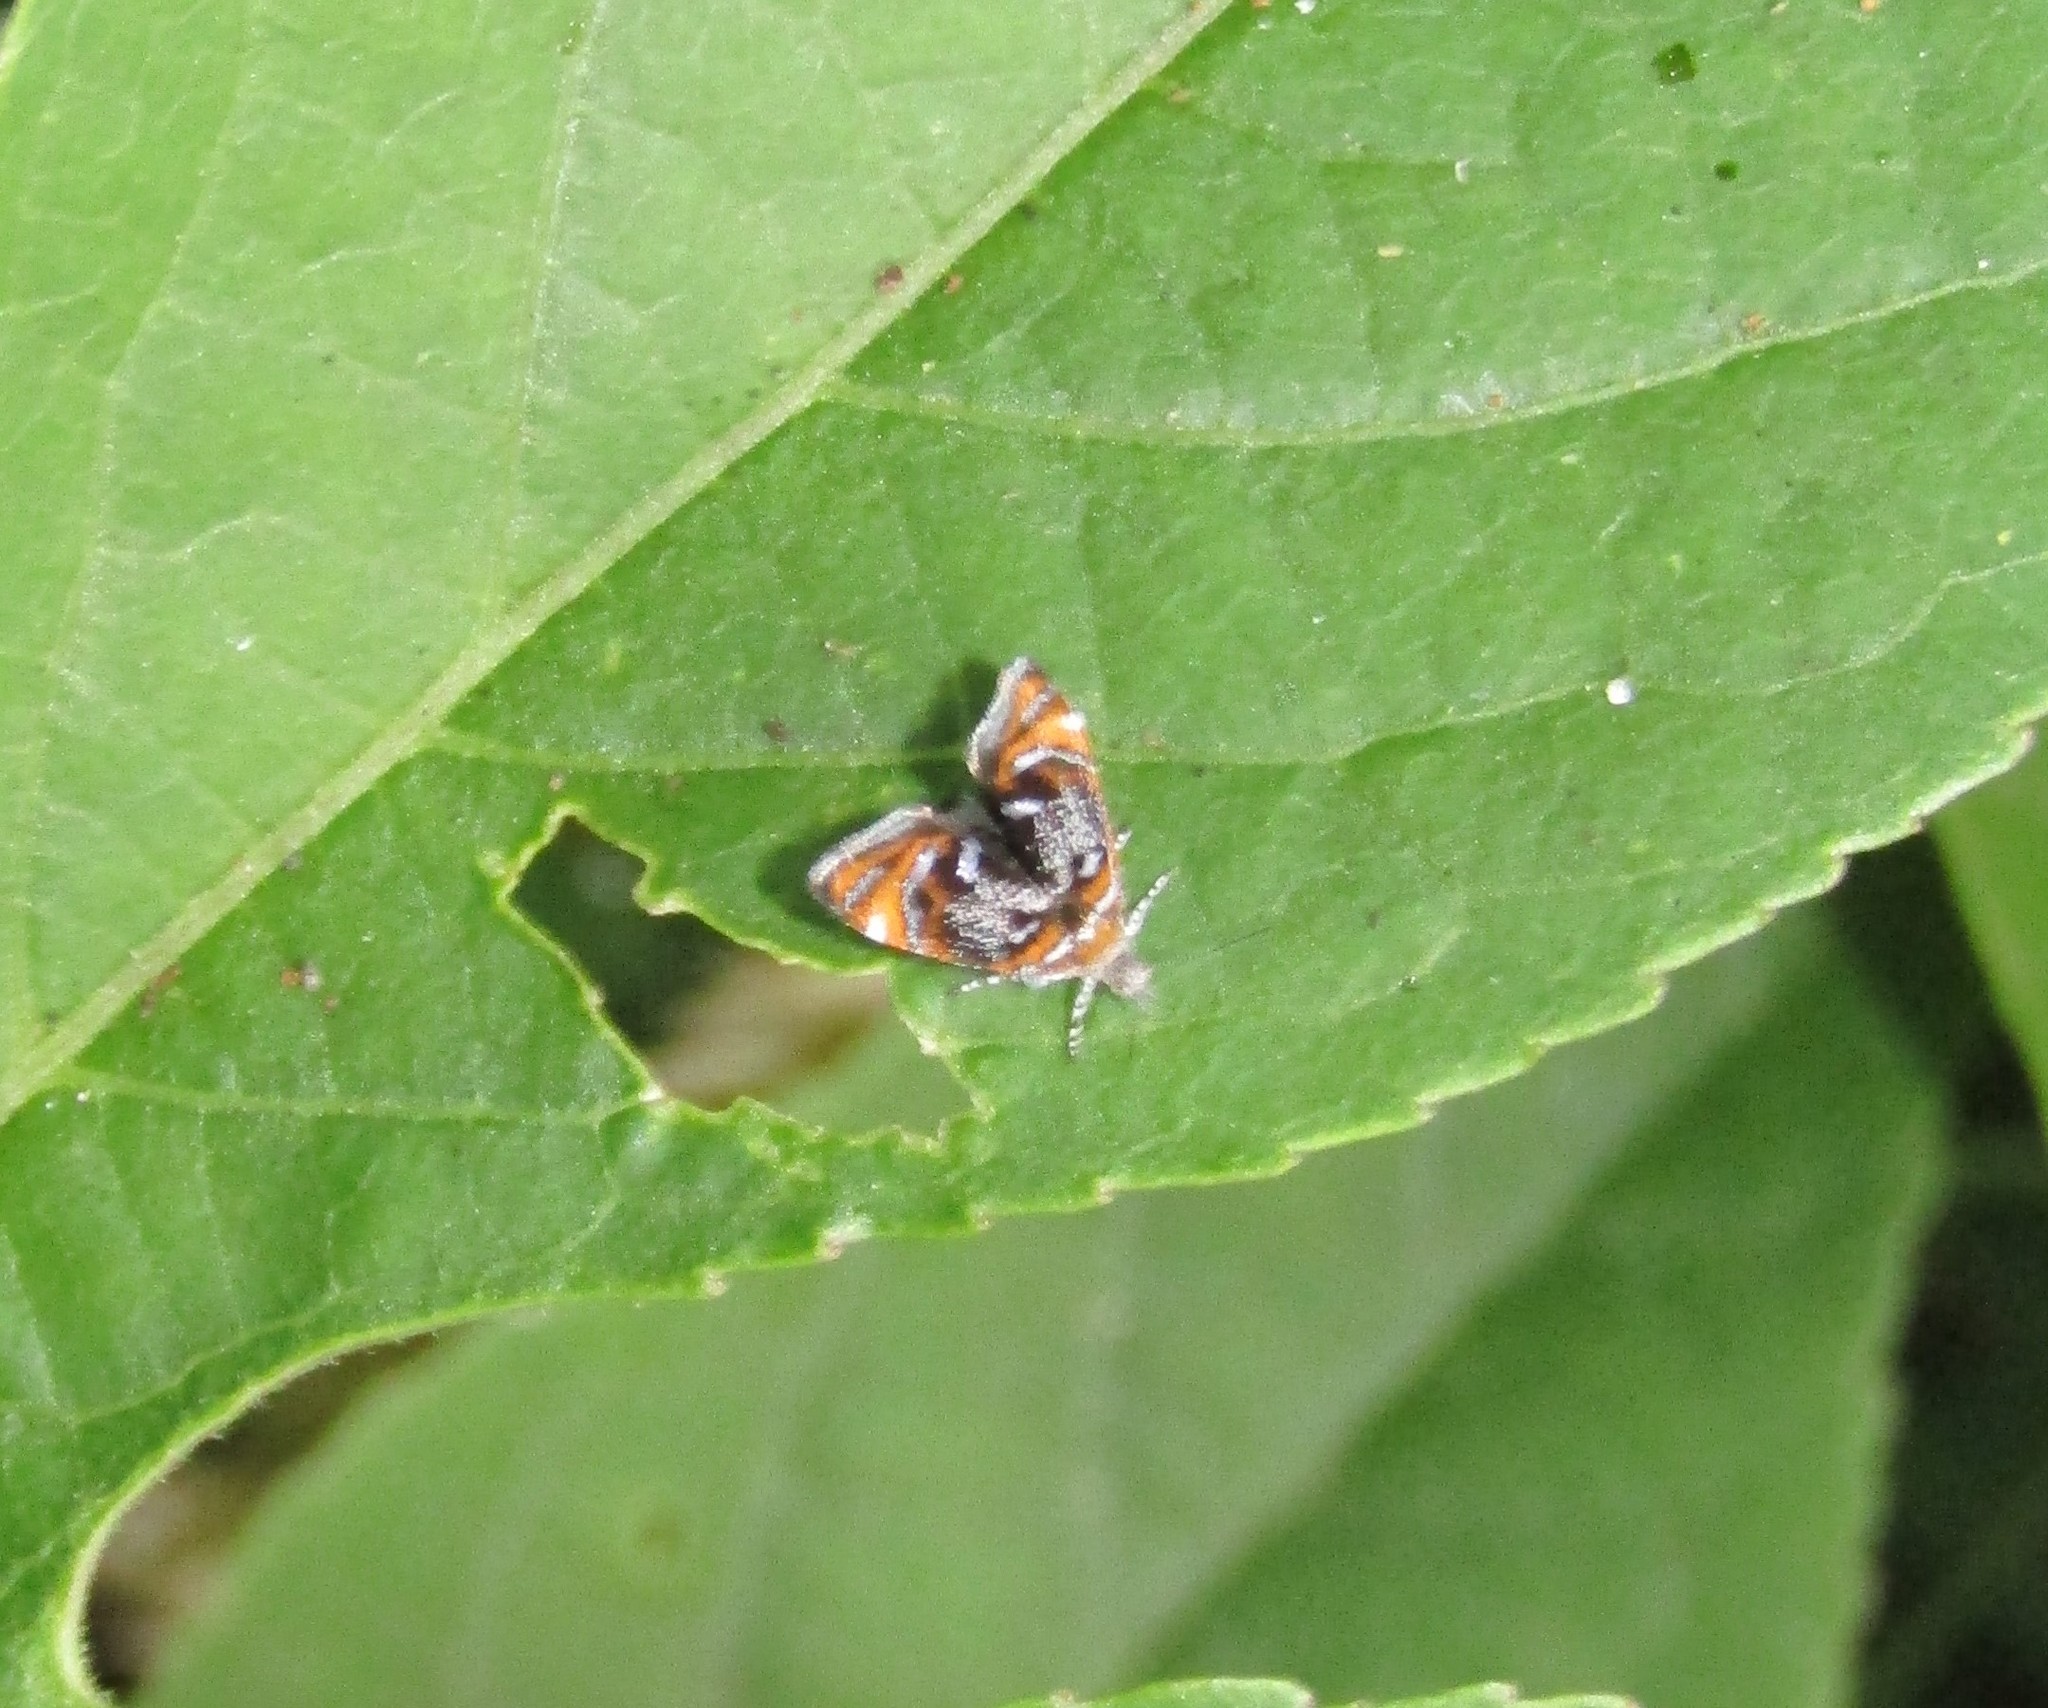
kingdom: Animalia
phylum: Arthropoda
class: Insecta
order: Lepidoptera
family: Choreutidae
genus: Prochoreutis
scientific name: Prochoreutis inflatella
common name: Skullcap skeletonizer moth
